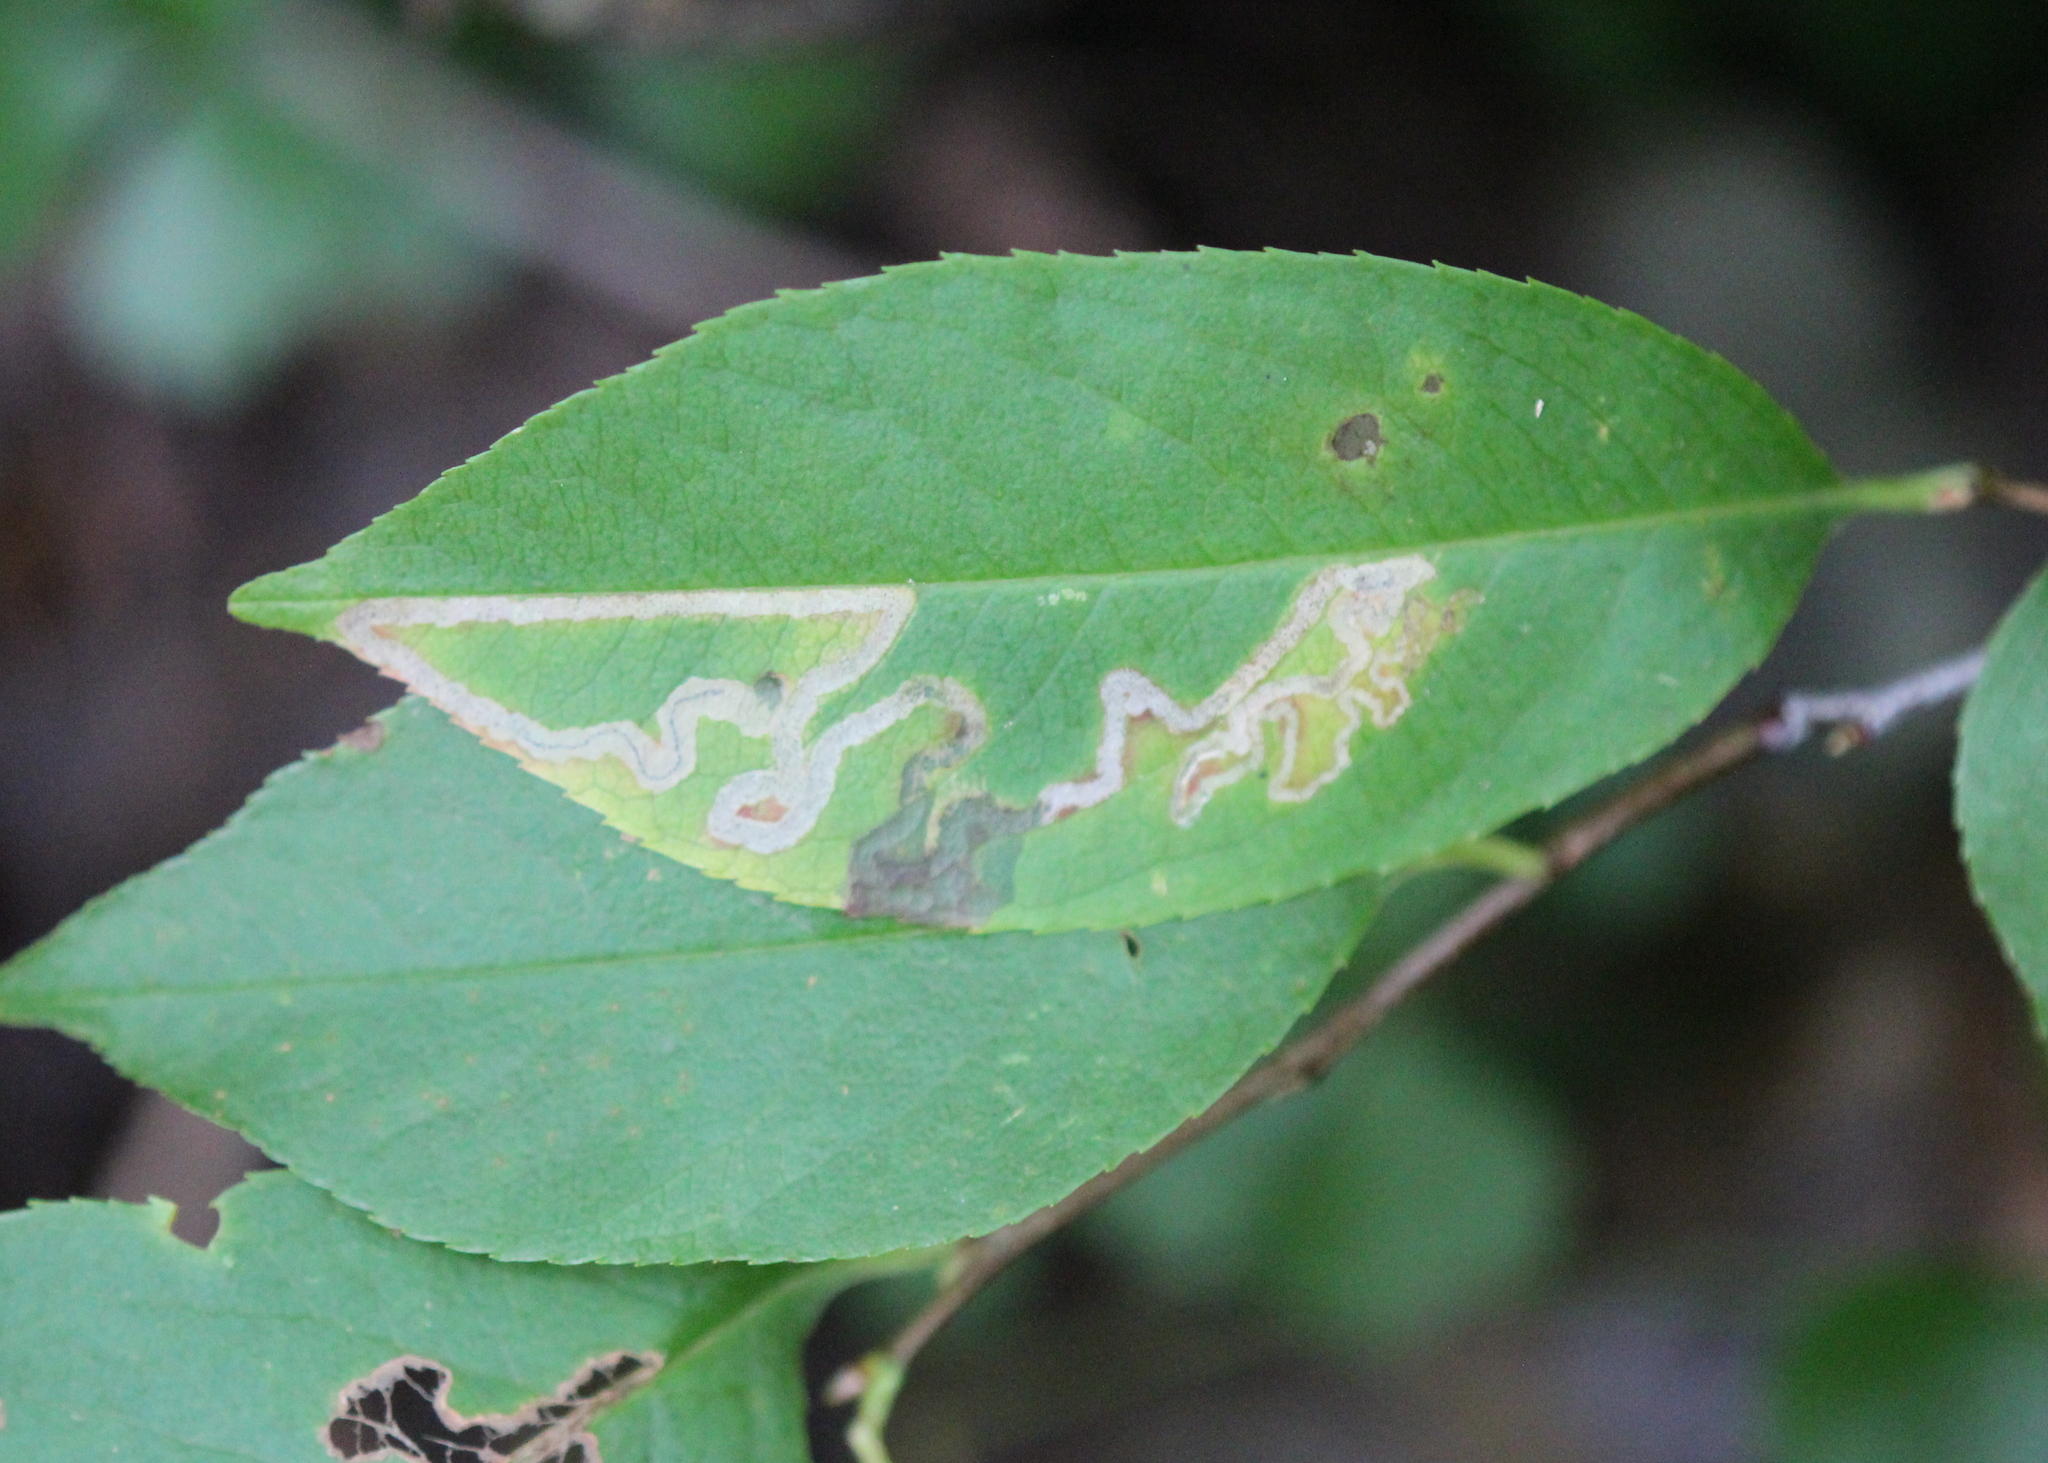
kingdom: Animalia
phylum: Arthropoda
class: Insecta
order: Lepidoptera
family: Nepticulidae
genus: Stigmella
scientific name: Stigmella prunifoliella
